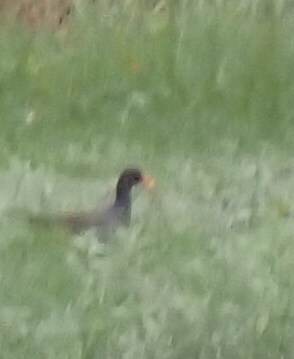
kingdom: Animalia
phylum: Chordata
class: Aves
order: Gruiformes
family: Rallidae
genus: Gallinula
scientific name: Gallinula chloropus
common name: Common moorhen
